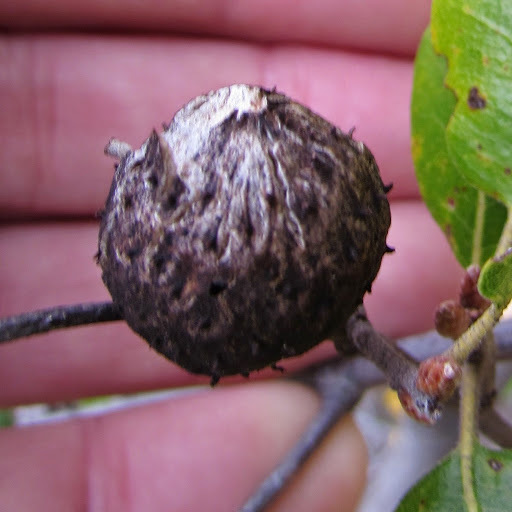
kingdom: Animalia
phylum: Arthropoda
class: Insecta
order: Hymenoptera
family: Cynipidae
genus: Amphibolips
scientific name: Amphibolips quercuspomiformis
